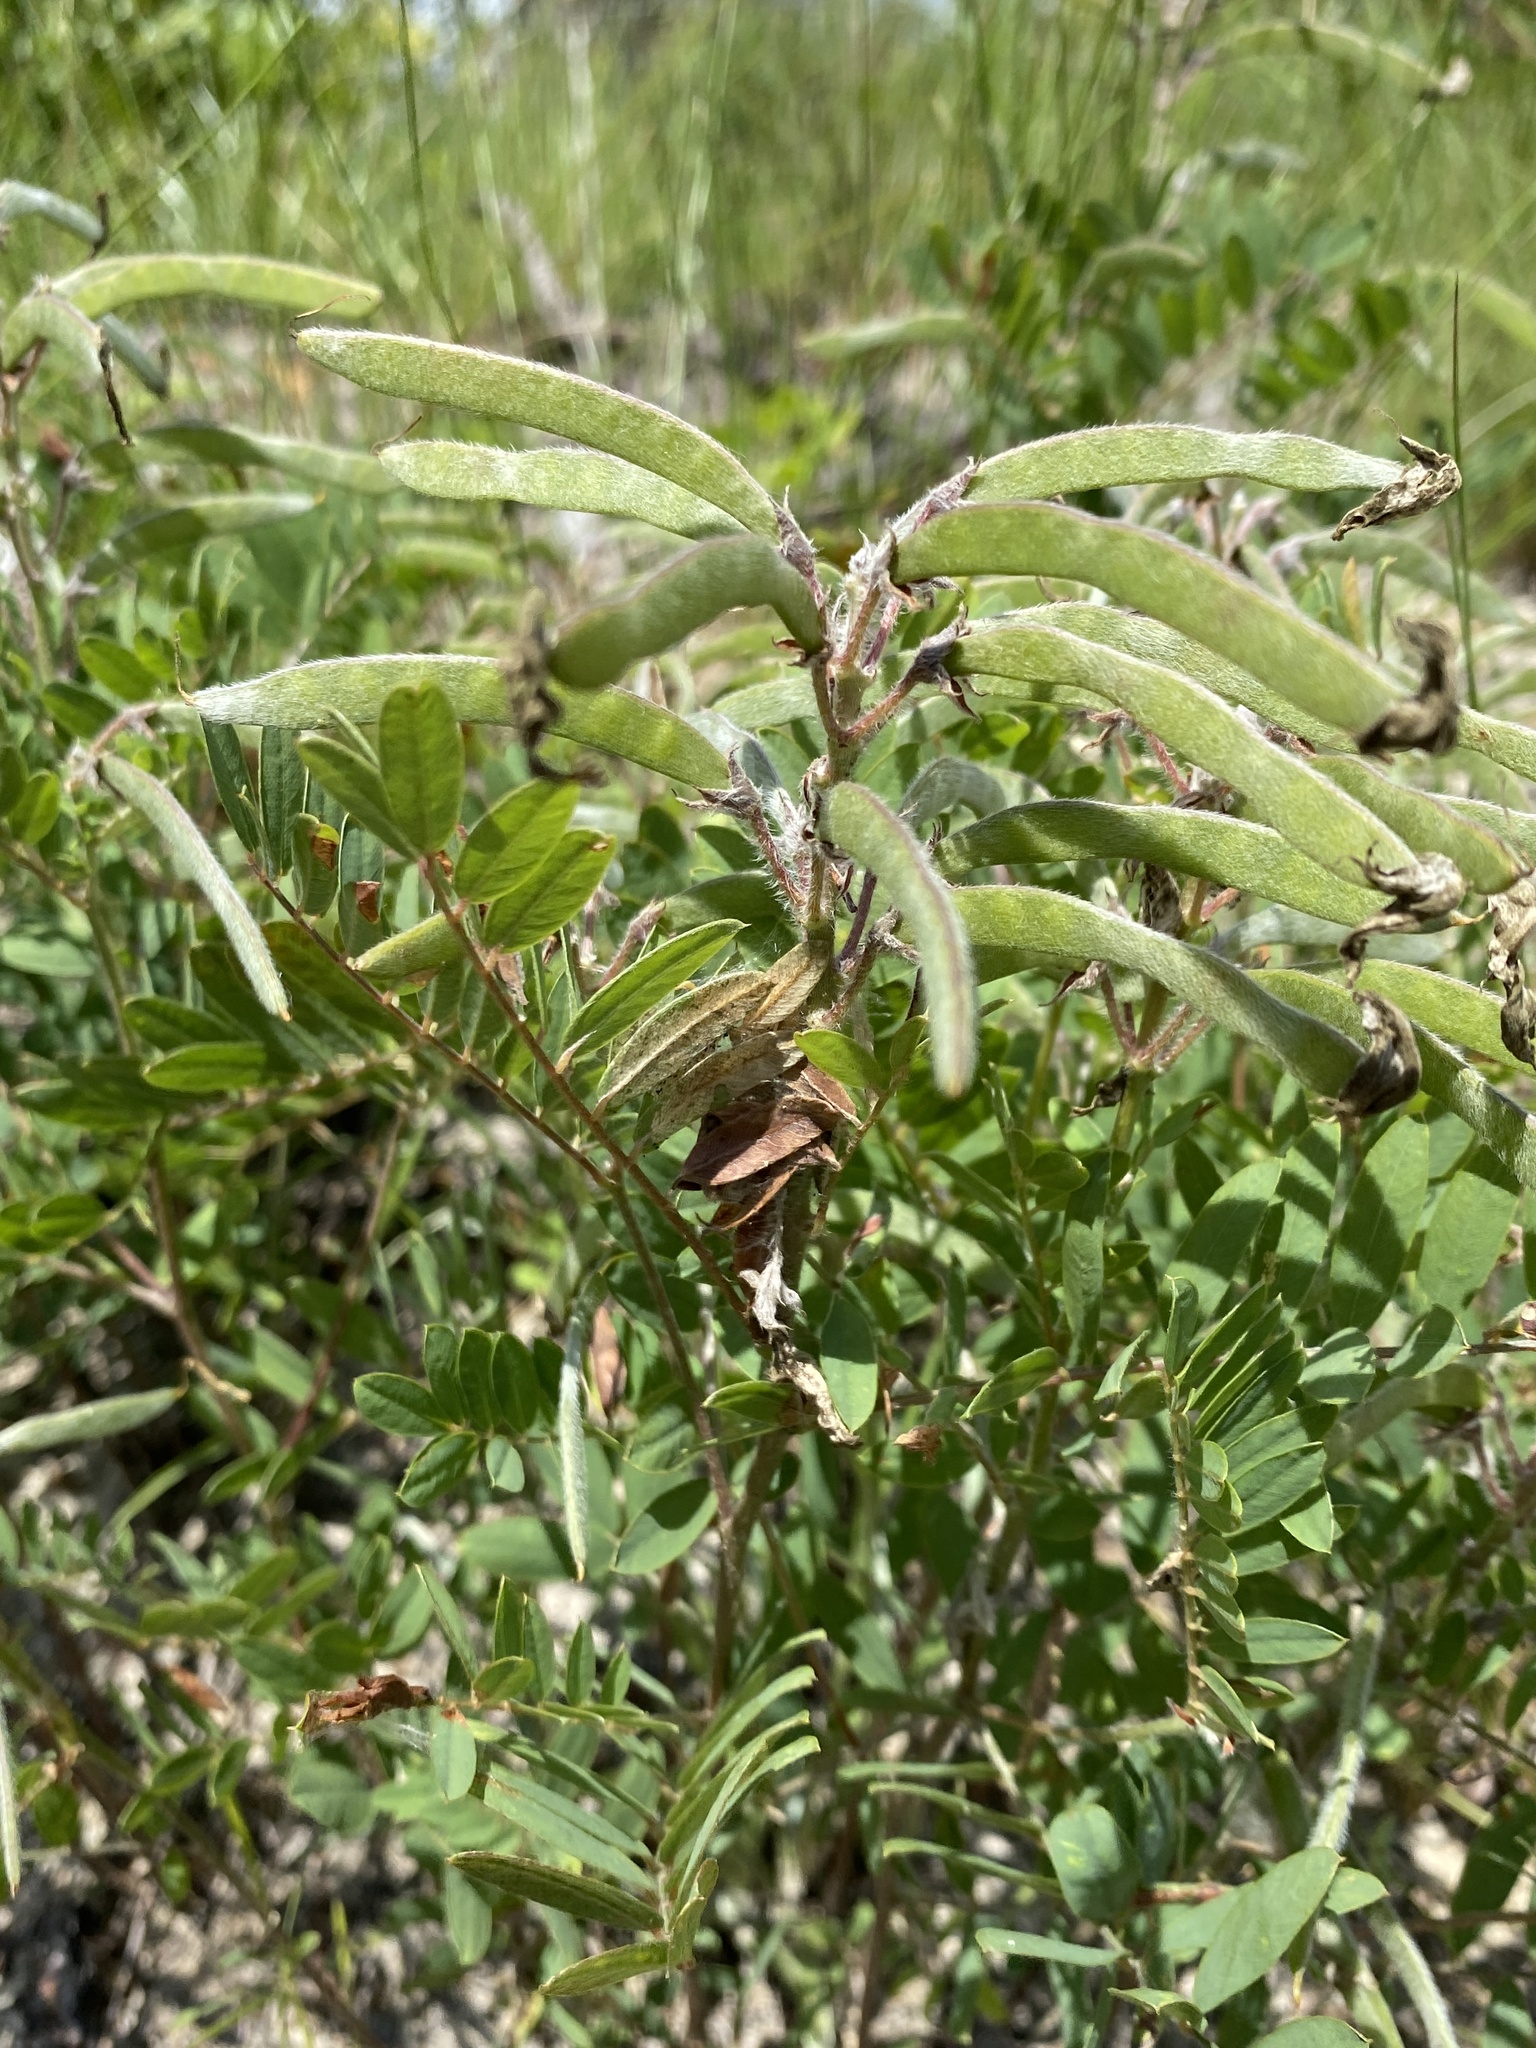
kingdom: Plantae
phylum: Tracheophyta
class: Magnoliopsida
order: Fabales
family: Fabaceae
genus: Tephrosia
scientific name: Tephrosia virginiana
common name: Rabbit-pea
